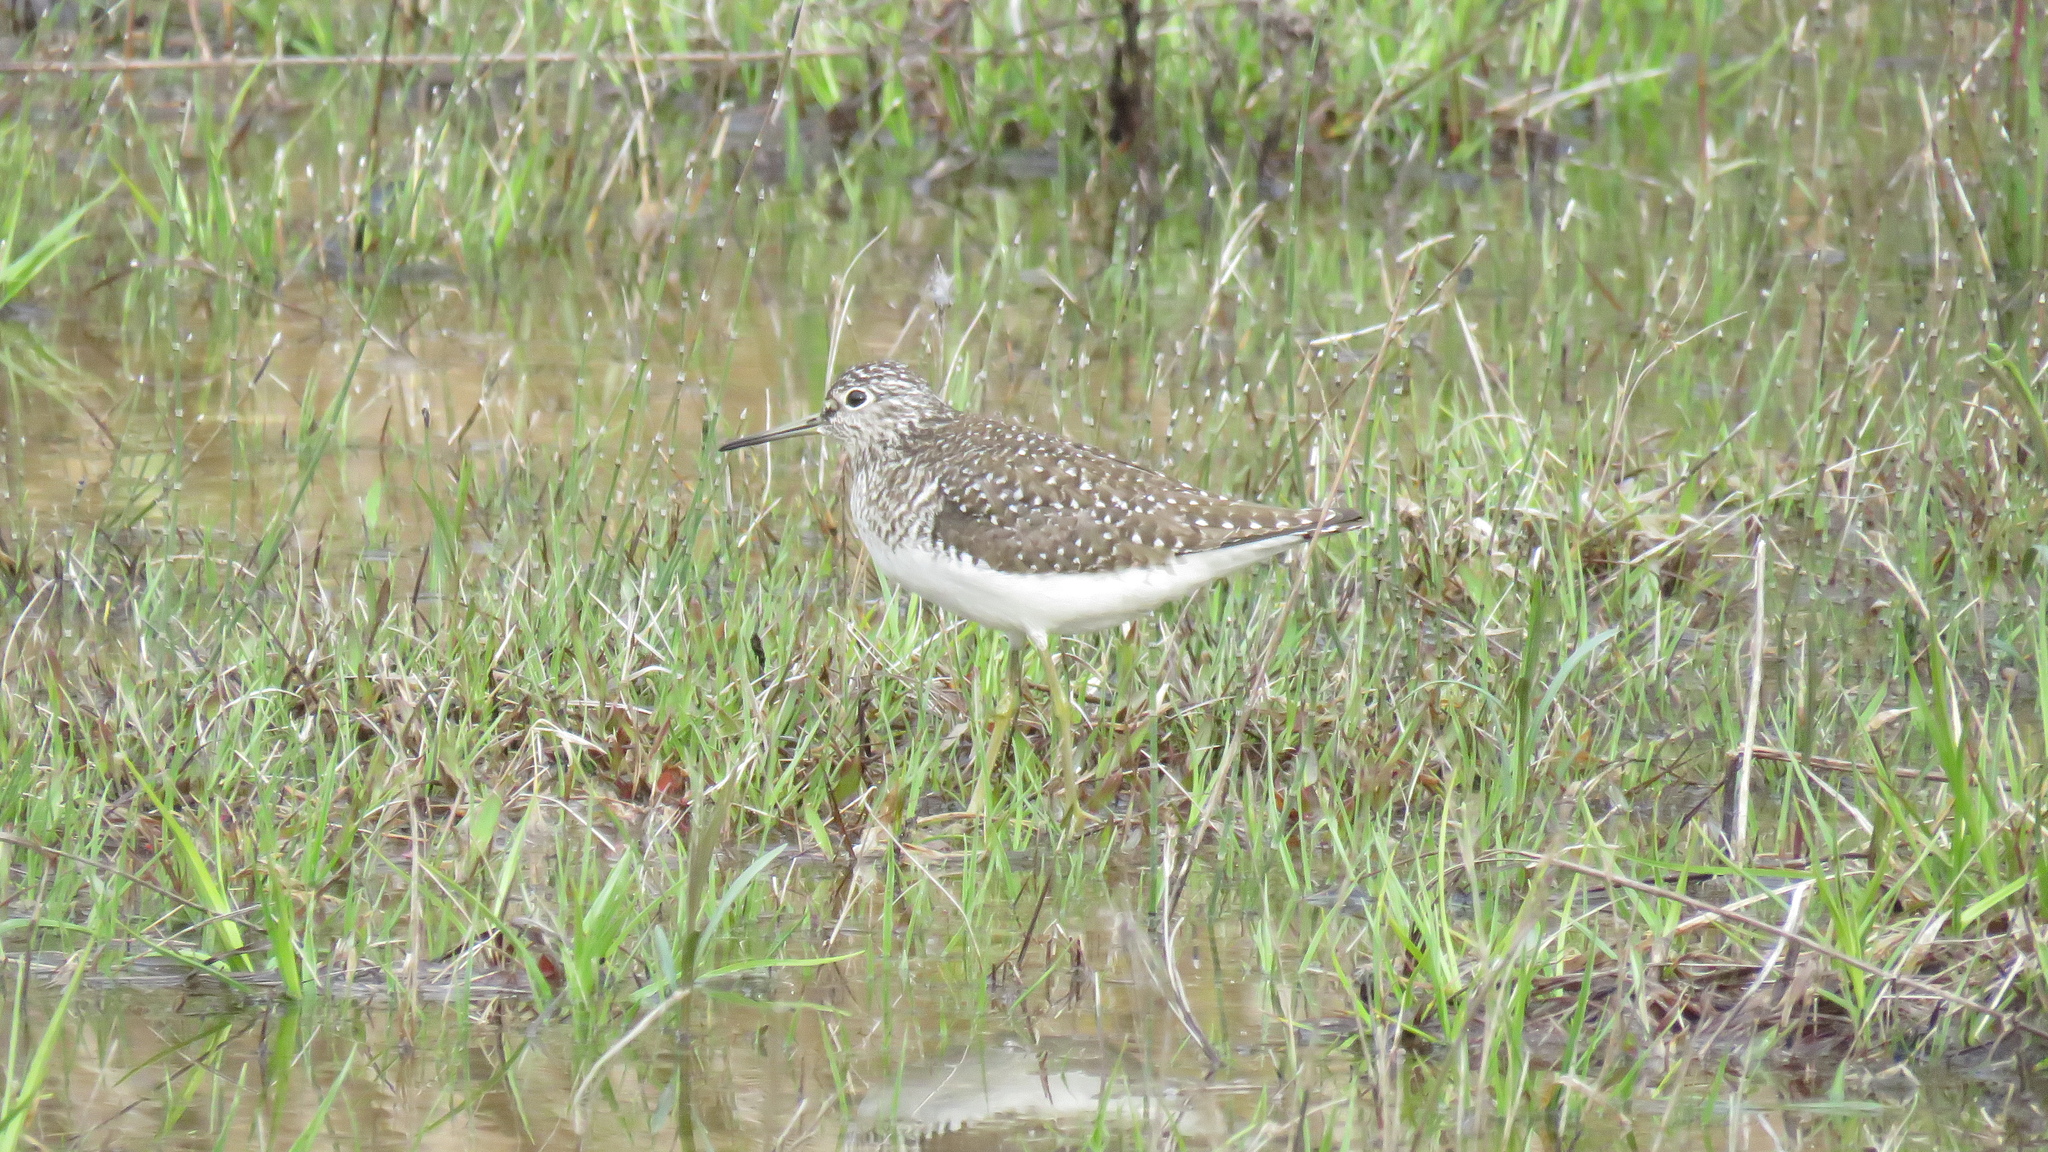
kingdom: Animalia
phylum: Chordata
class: Aves
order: Charadriiformes
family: Scolopacidae
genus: Tringa
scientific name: Tringa solitaria
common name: Solitary sandpiper
